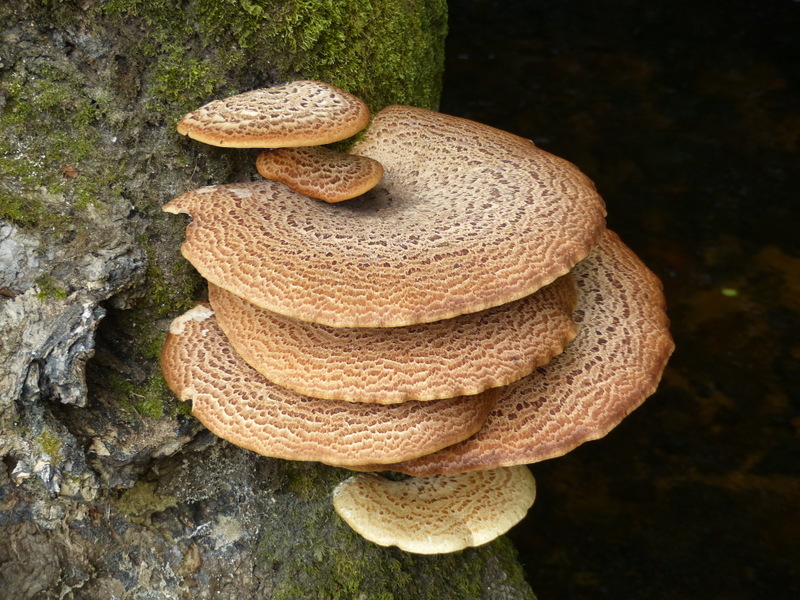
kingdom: Fungi
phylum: Basidiomycota
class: Agaricomycetes
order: Polyporales
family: Polyporaceae
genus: Cerioporus
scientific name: Cerioporus squamosus
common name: Dryad's saddle
